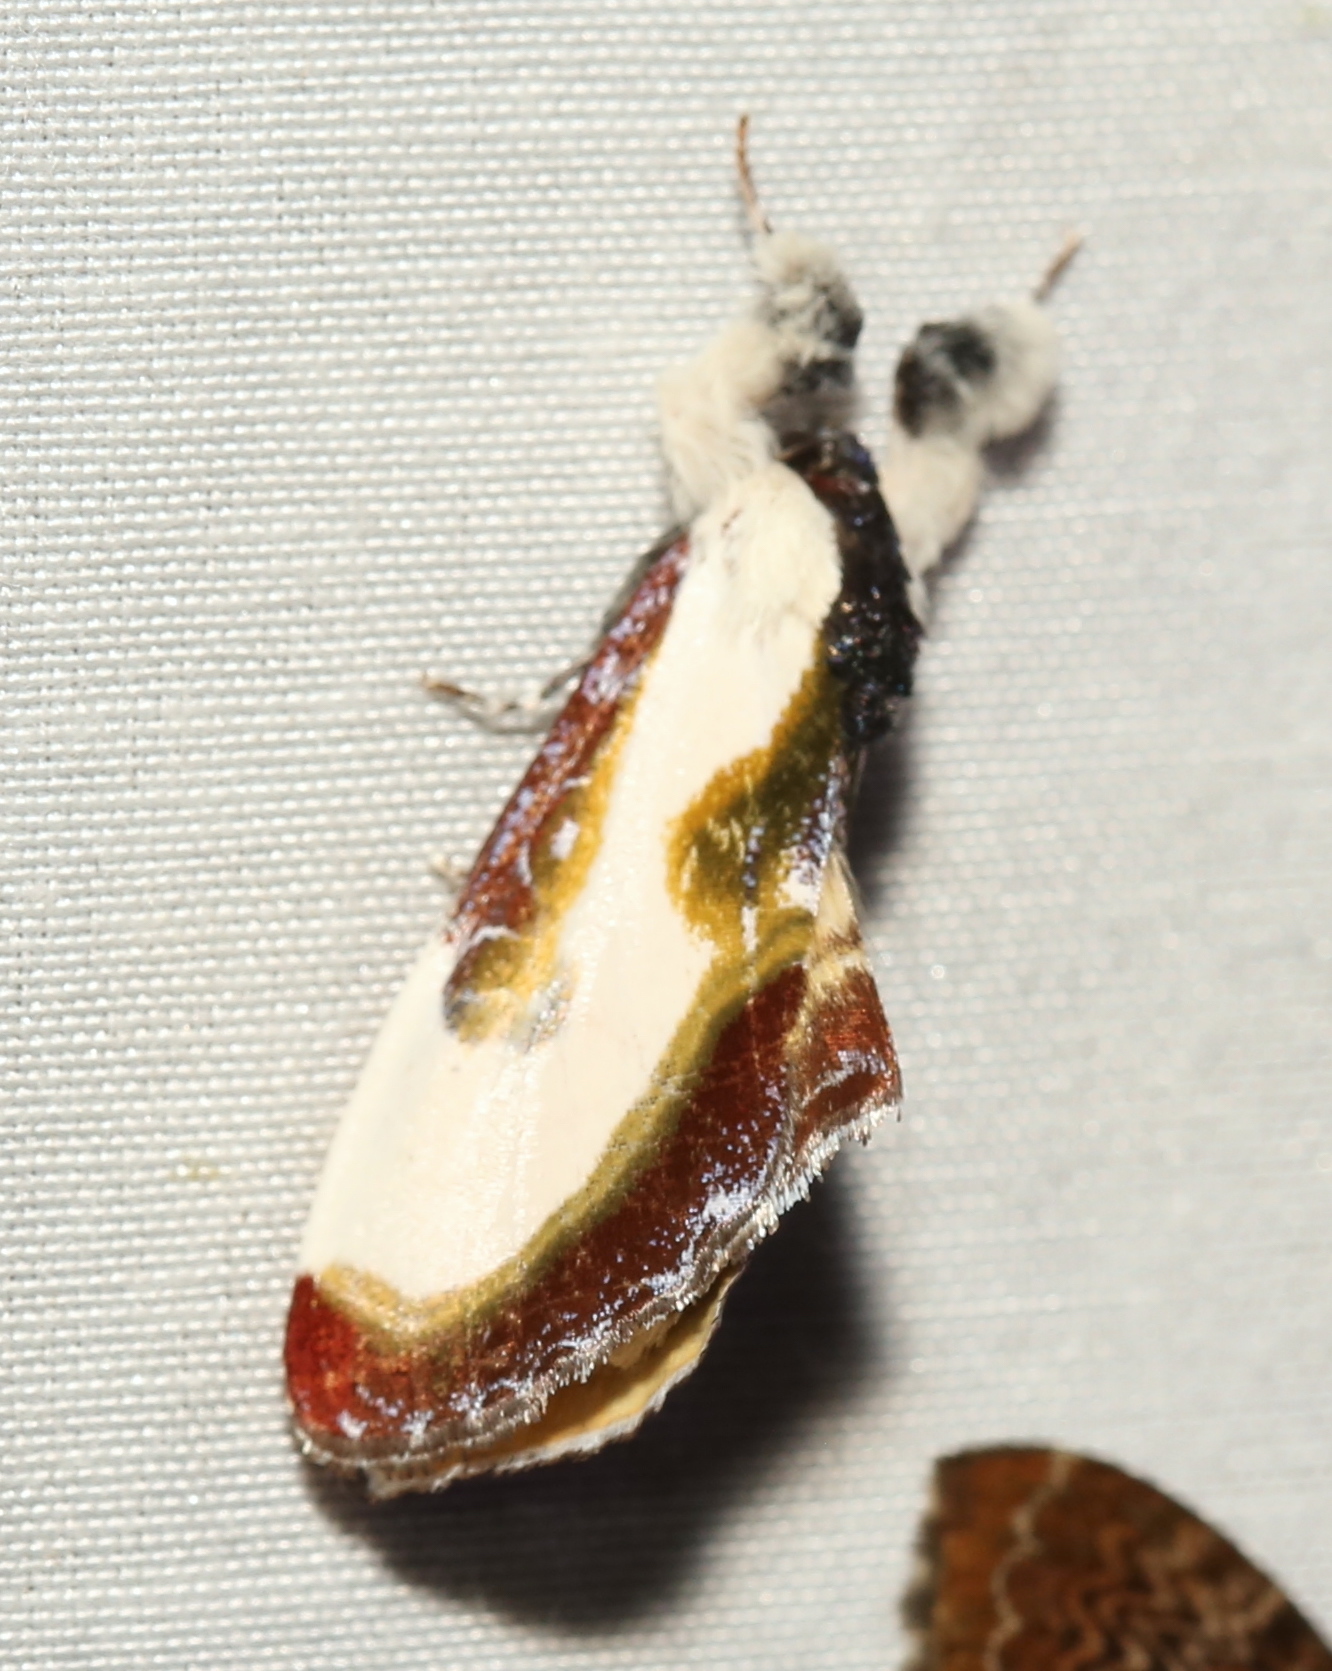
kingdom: Animalia
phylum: Arthropoda
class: Insecta
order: Lepidoptera
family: Noctuidae
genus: Eudryas
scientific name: Eudryas grata
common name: Beautiful wood-nymph
